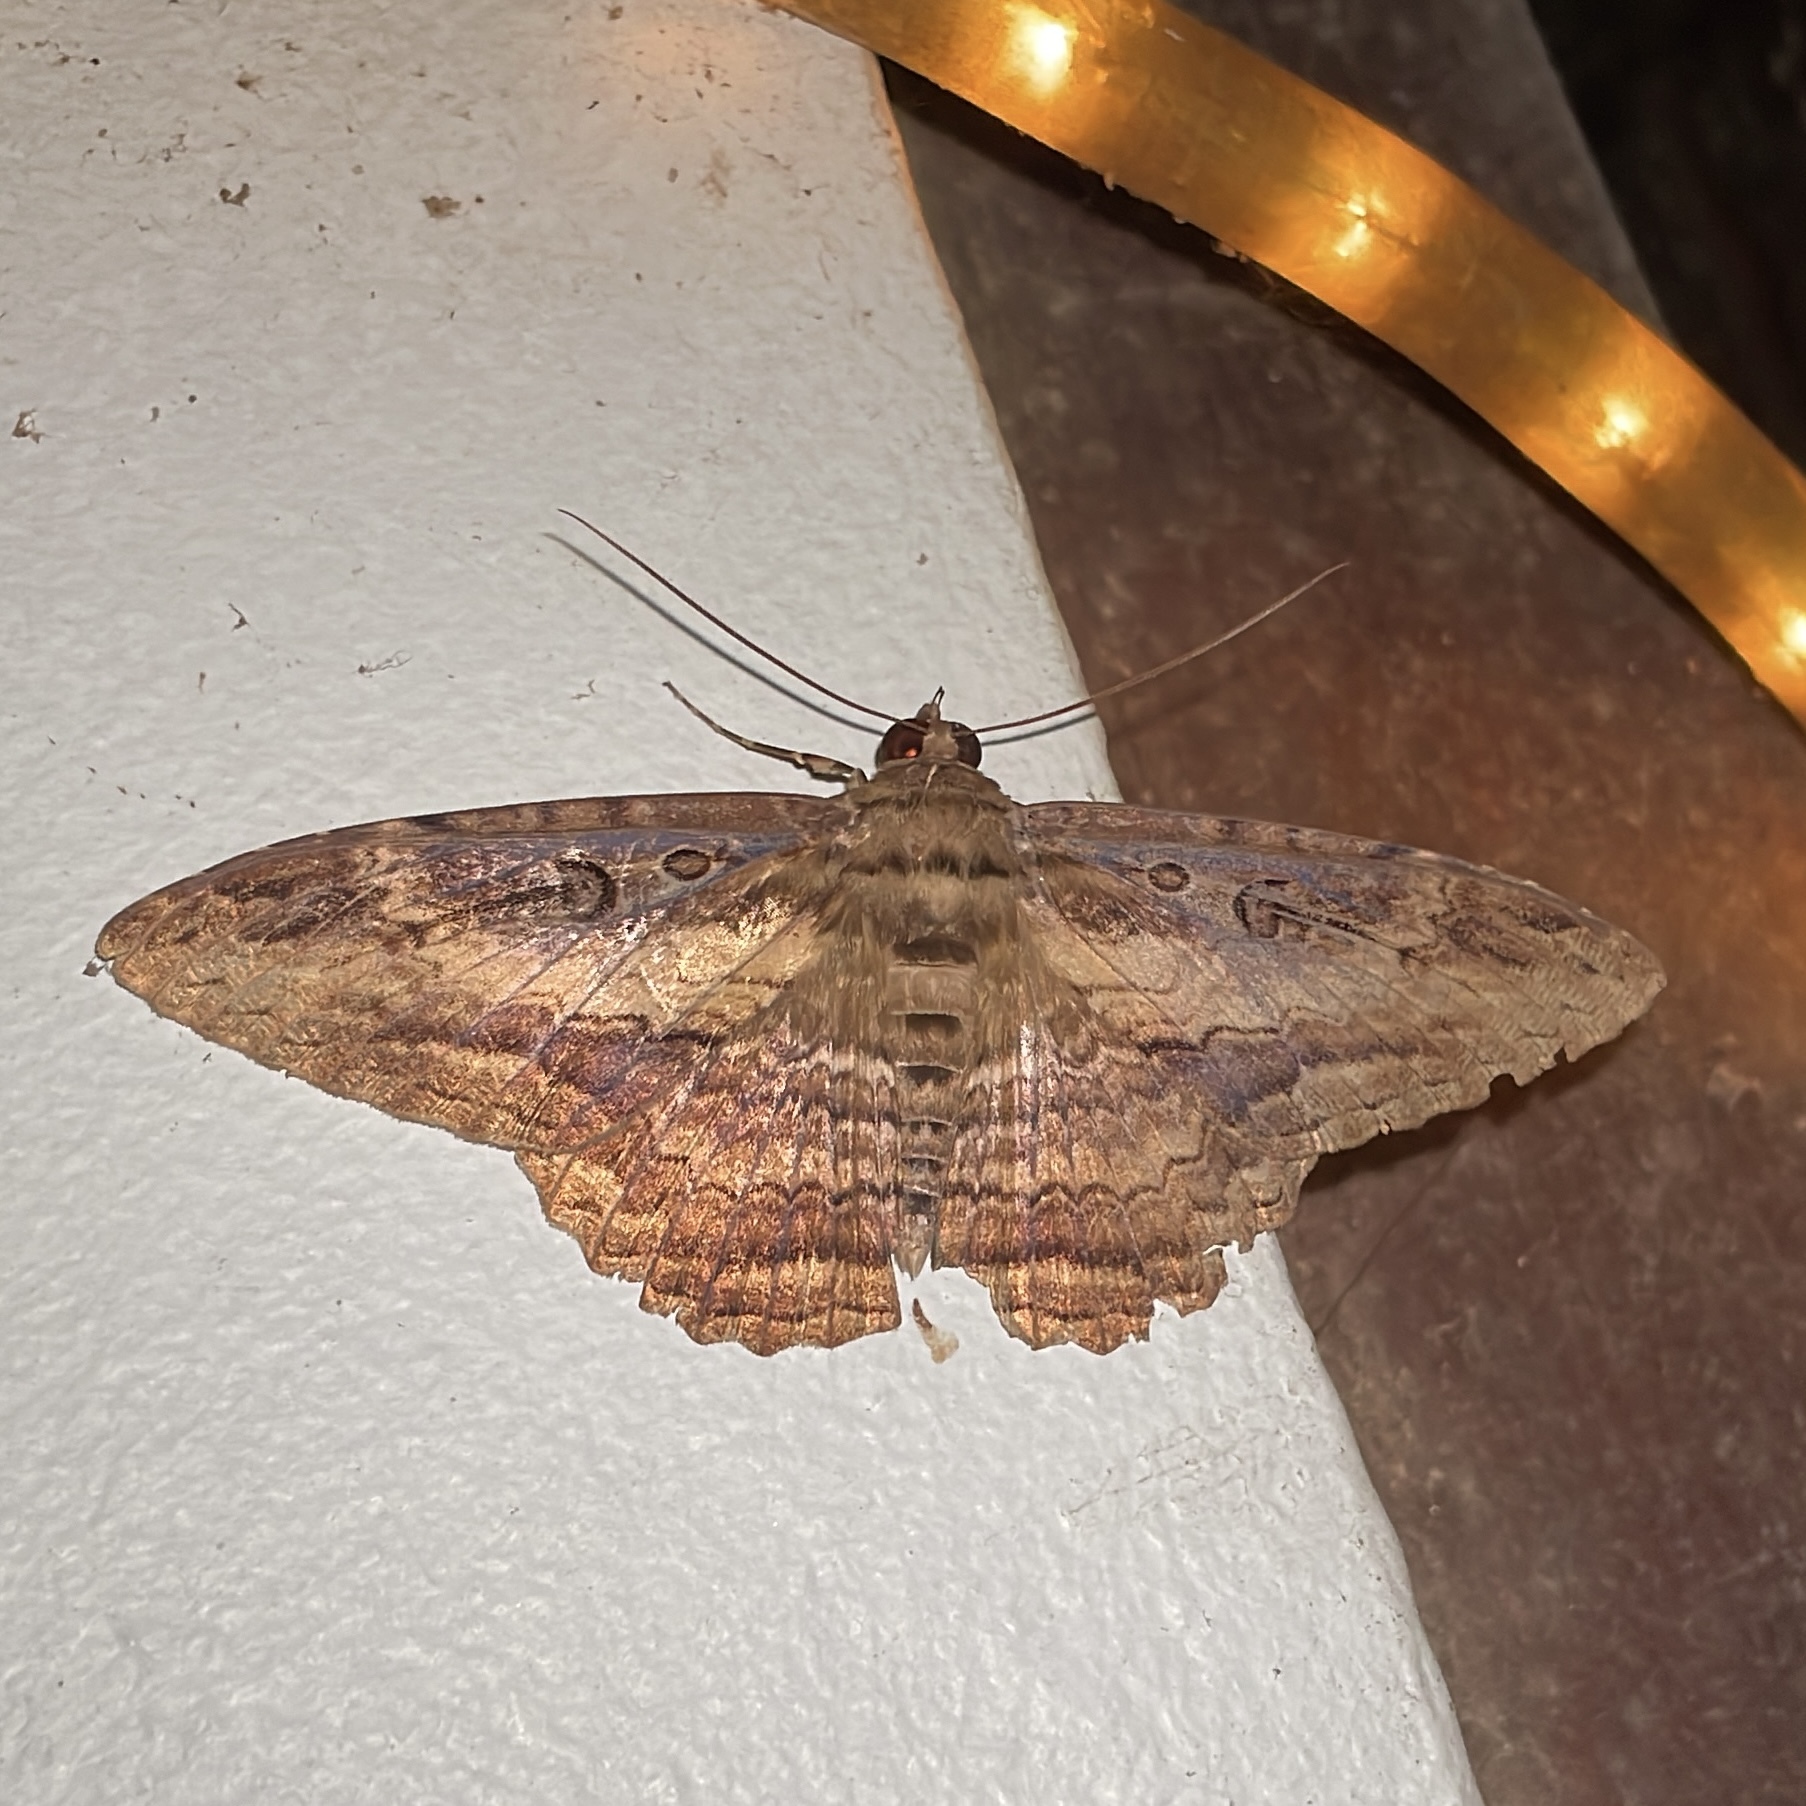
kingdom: Animalia
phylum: Arthropoda
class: Insecta
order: Lepidoptera
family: Erebidae
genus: Feigeria
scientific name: Feigeria buteo
